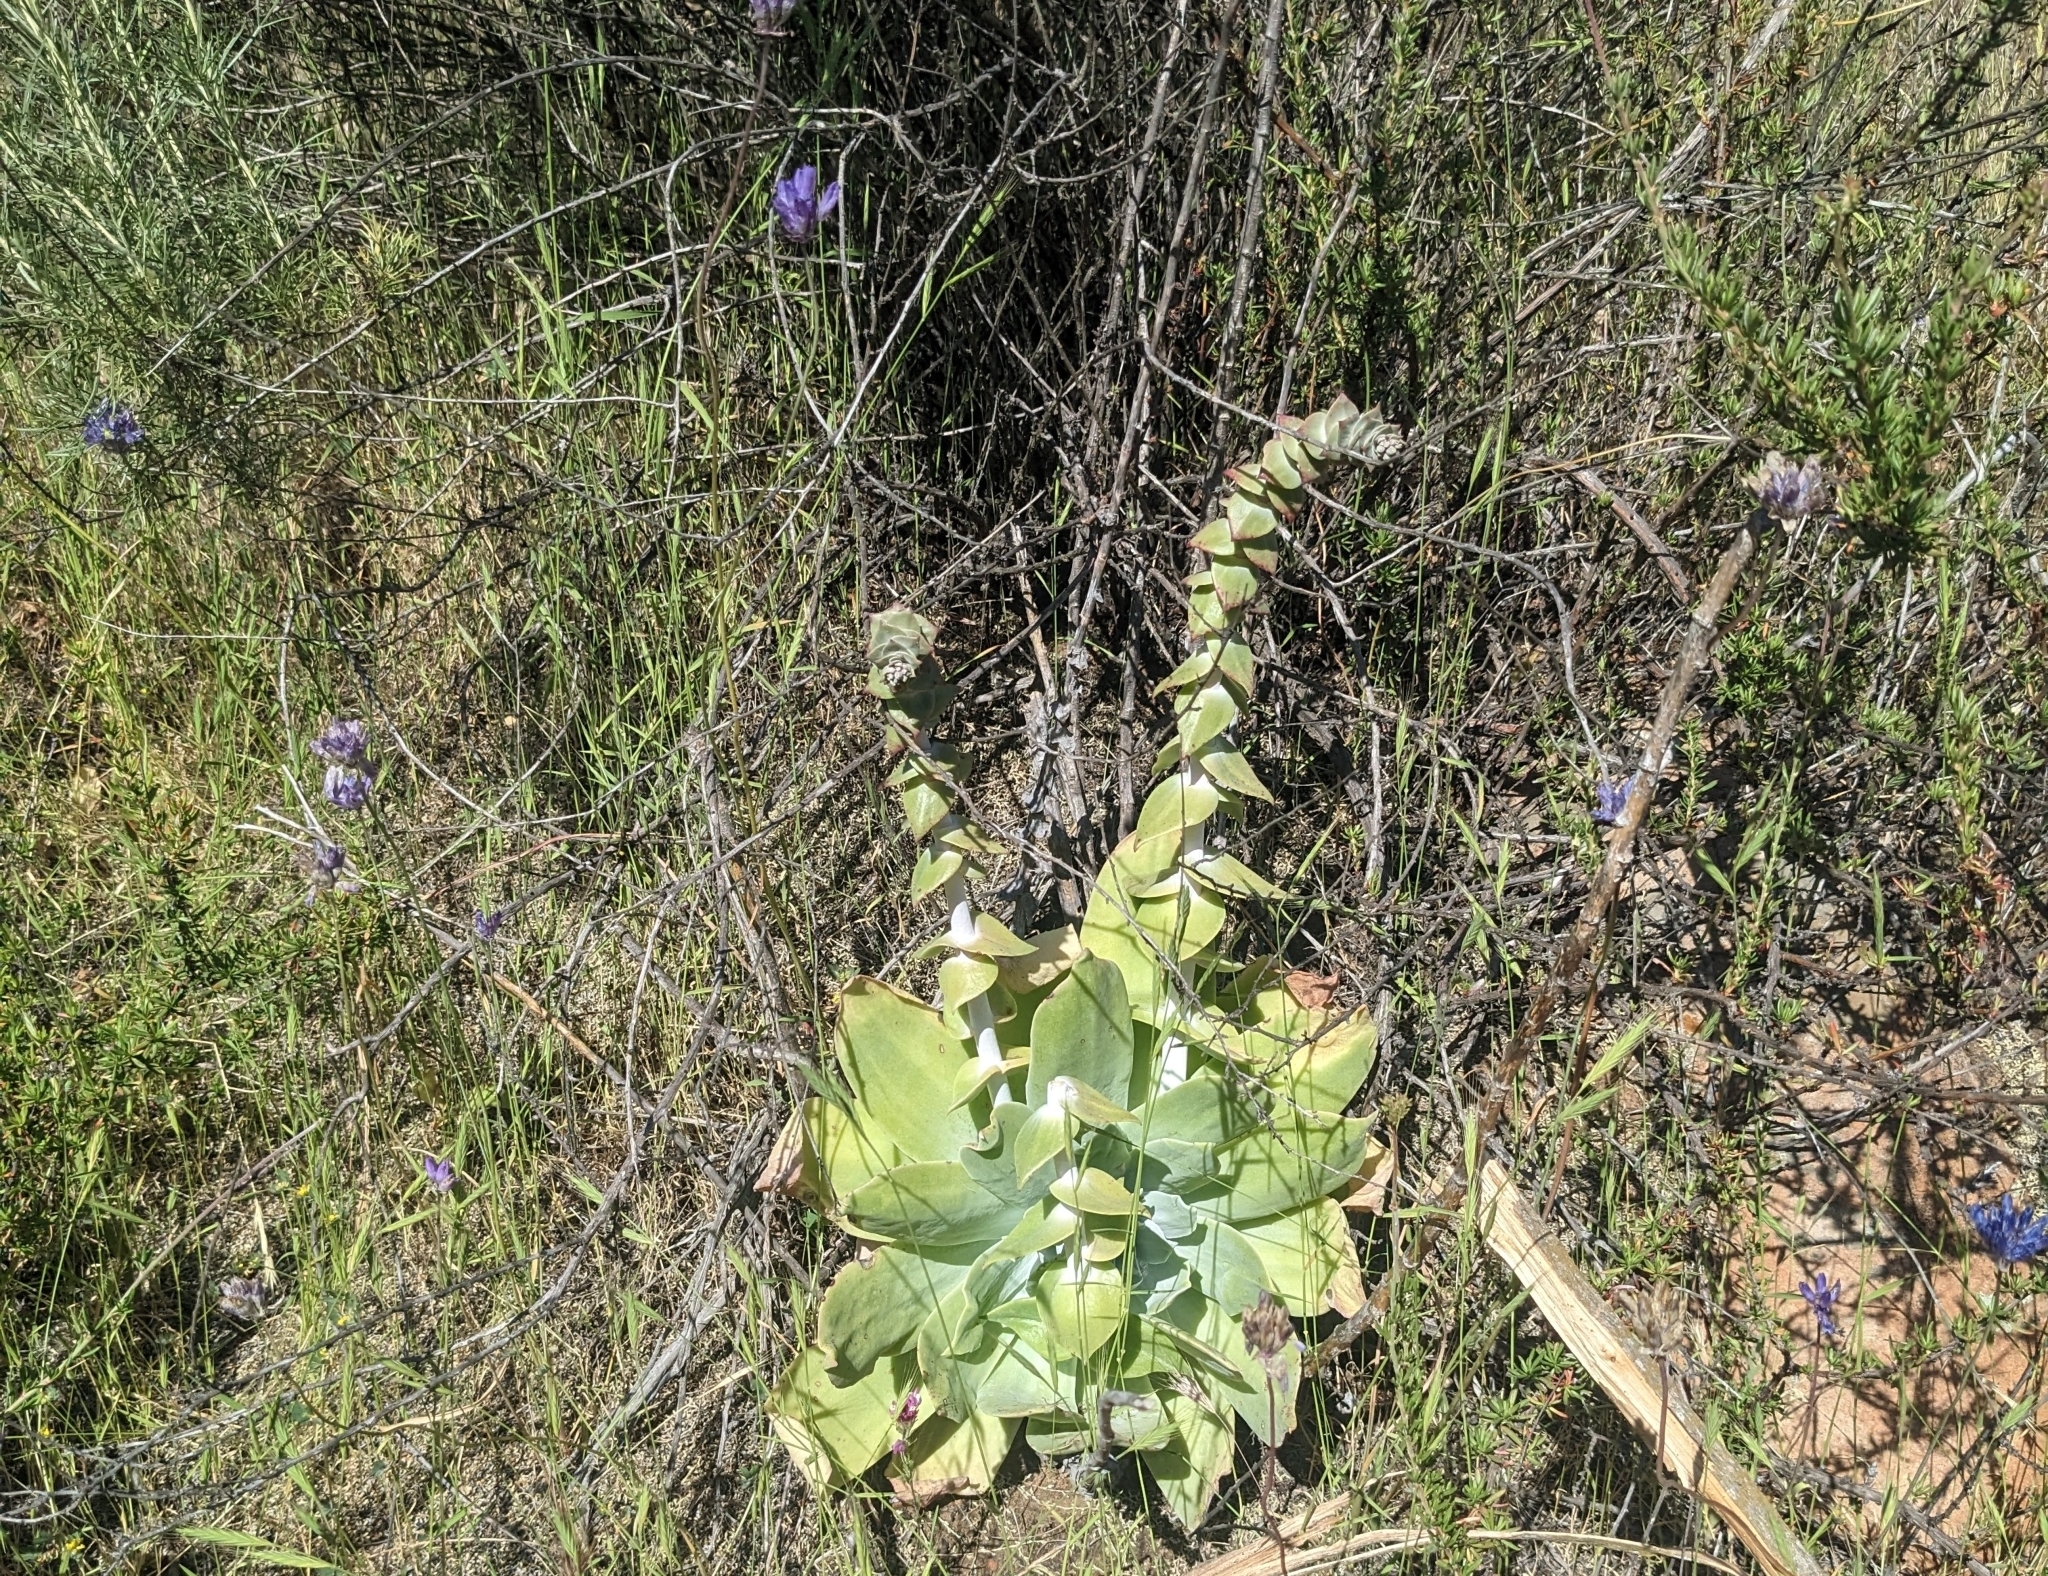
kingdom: Plantae
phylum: Tracheophyta
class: Magnoliopsida
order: Saxifragales
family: Crassulaceae
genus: Dudleya
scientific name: Dudleya pulverulenta
